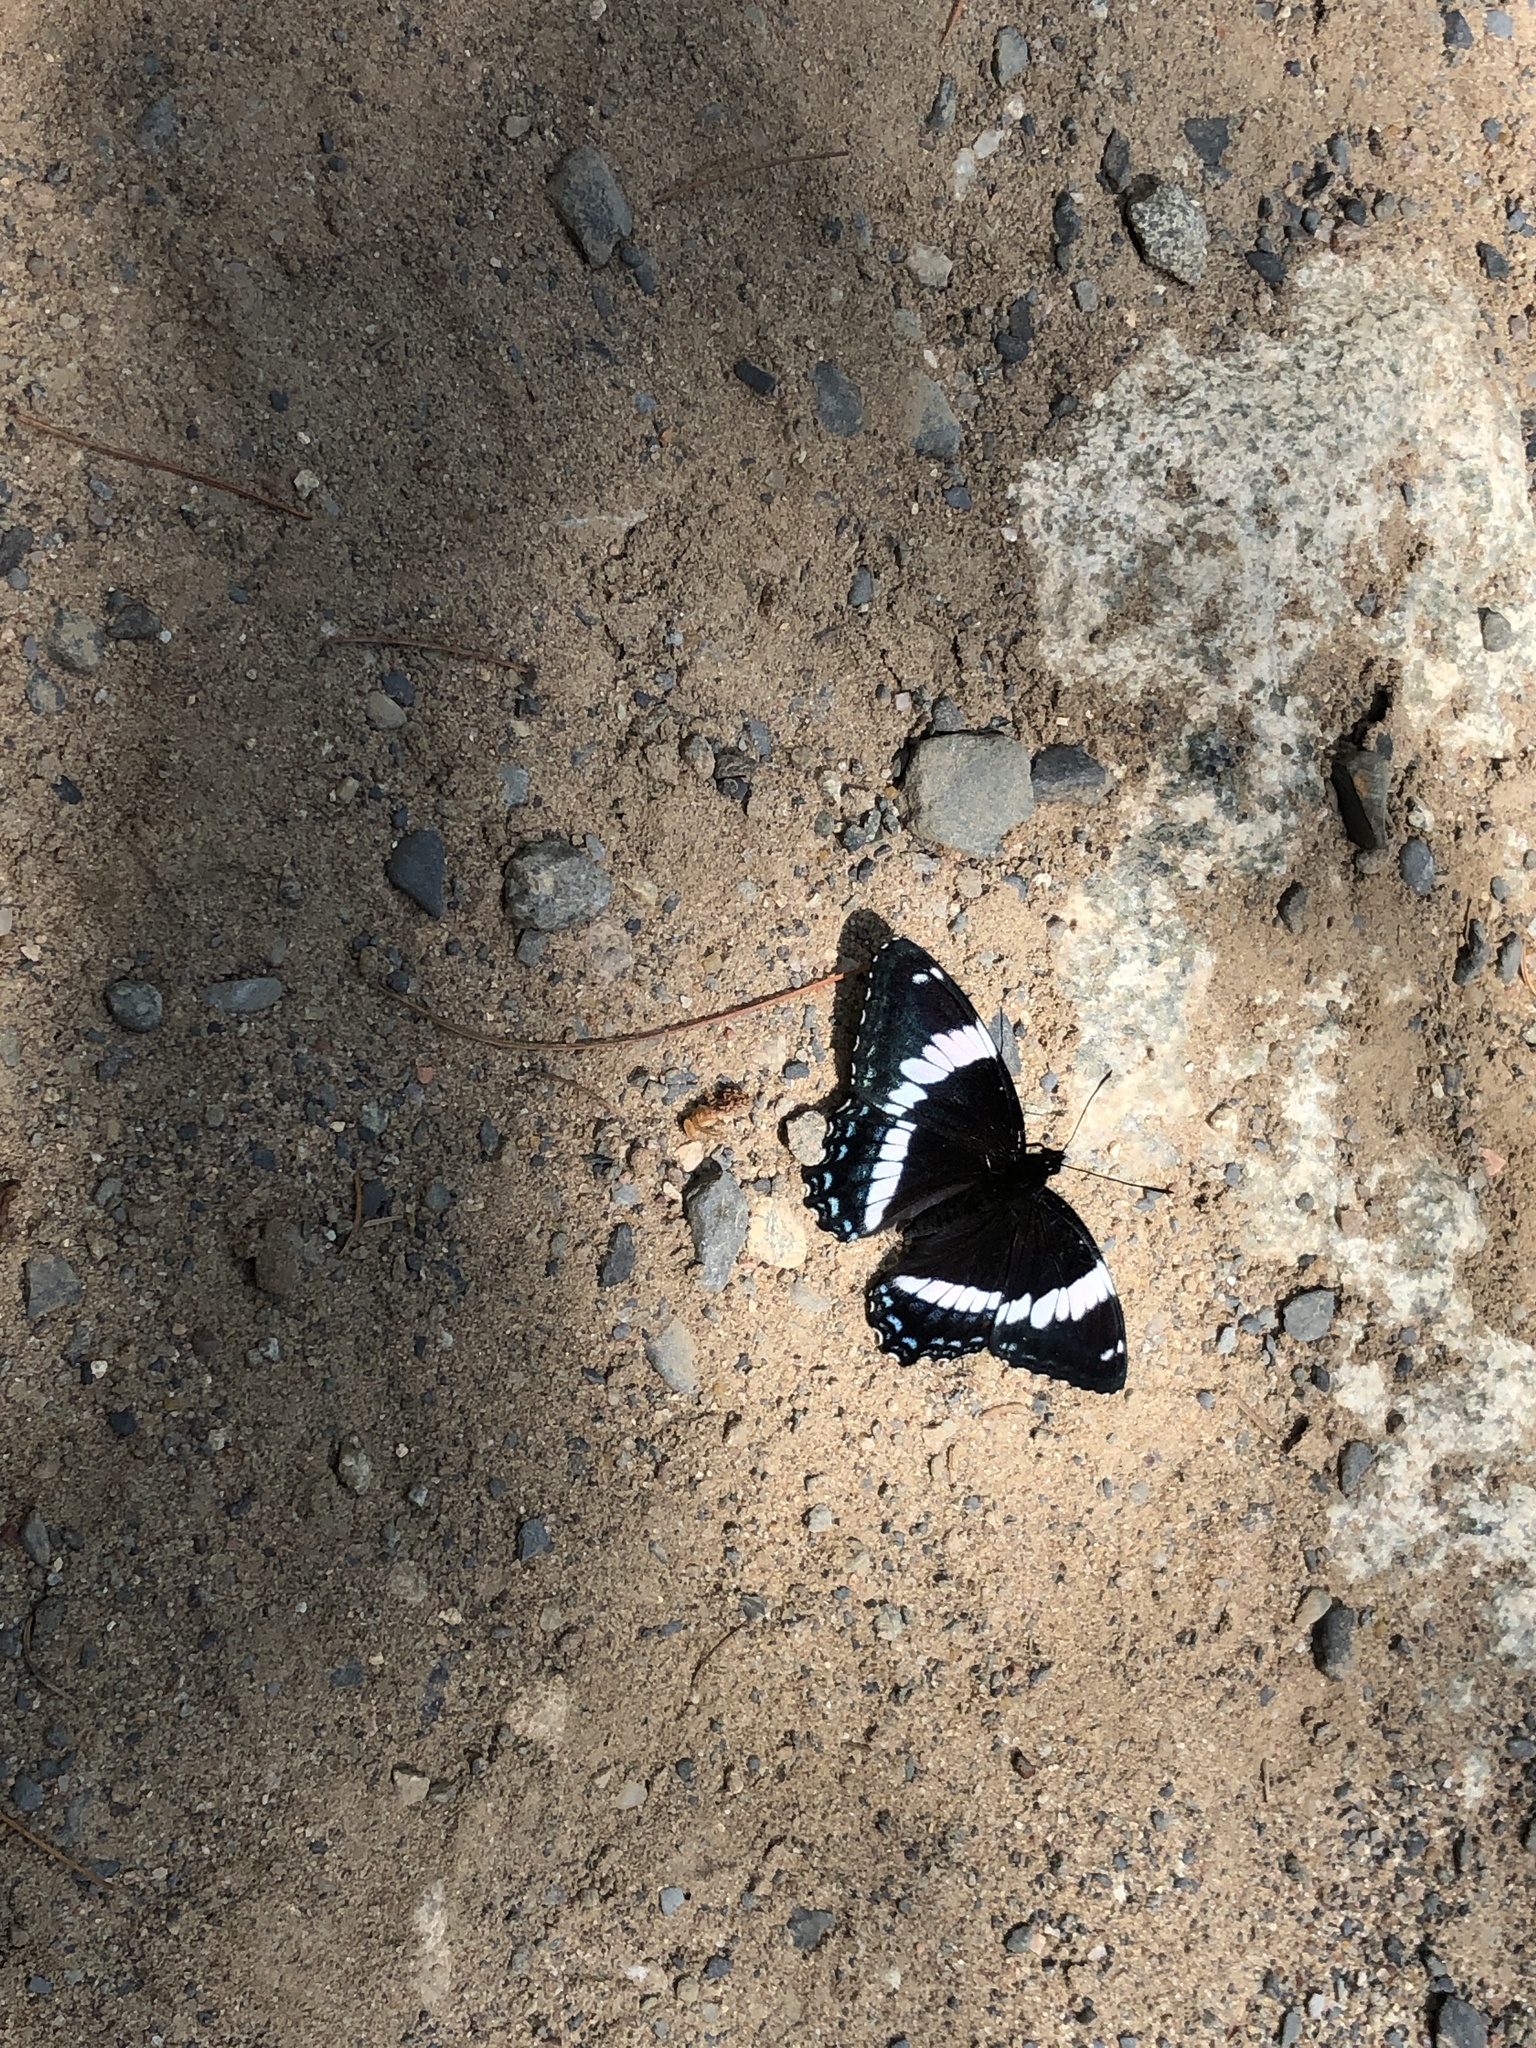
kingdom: Animalia
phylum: Arthropoda
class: Insecta
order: Lepidoptera
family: Nymphalidae
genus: Limenitis
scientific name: Limenitis arthemis
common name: Red-spotted admiral
